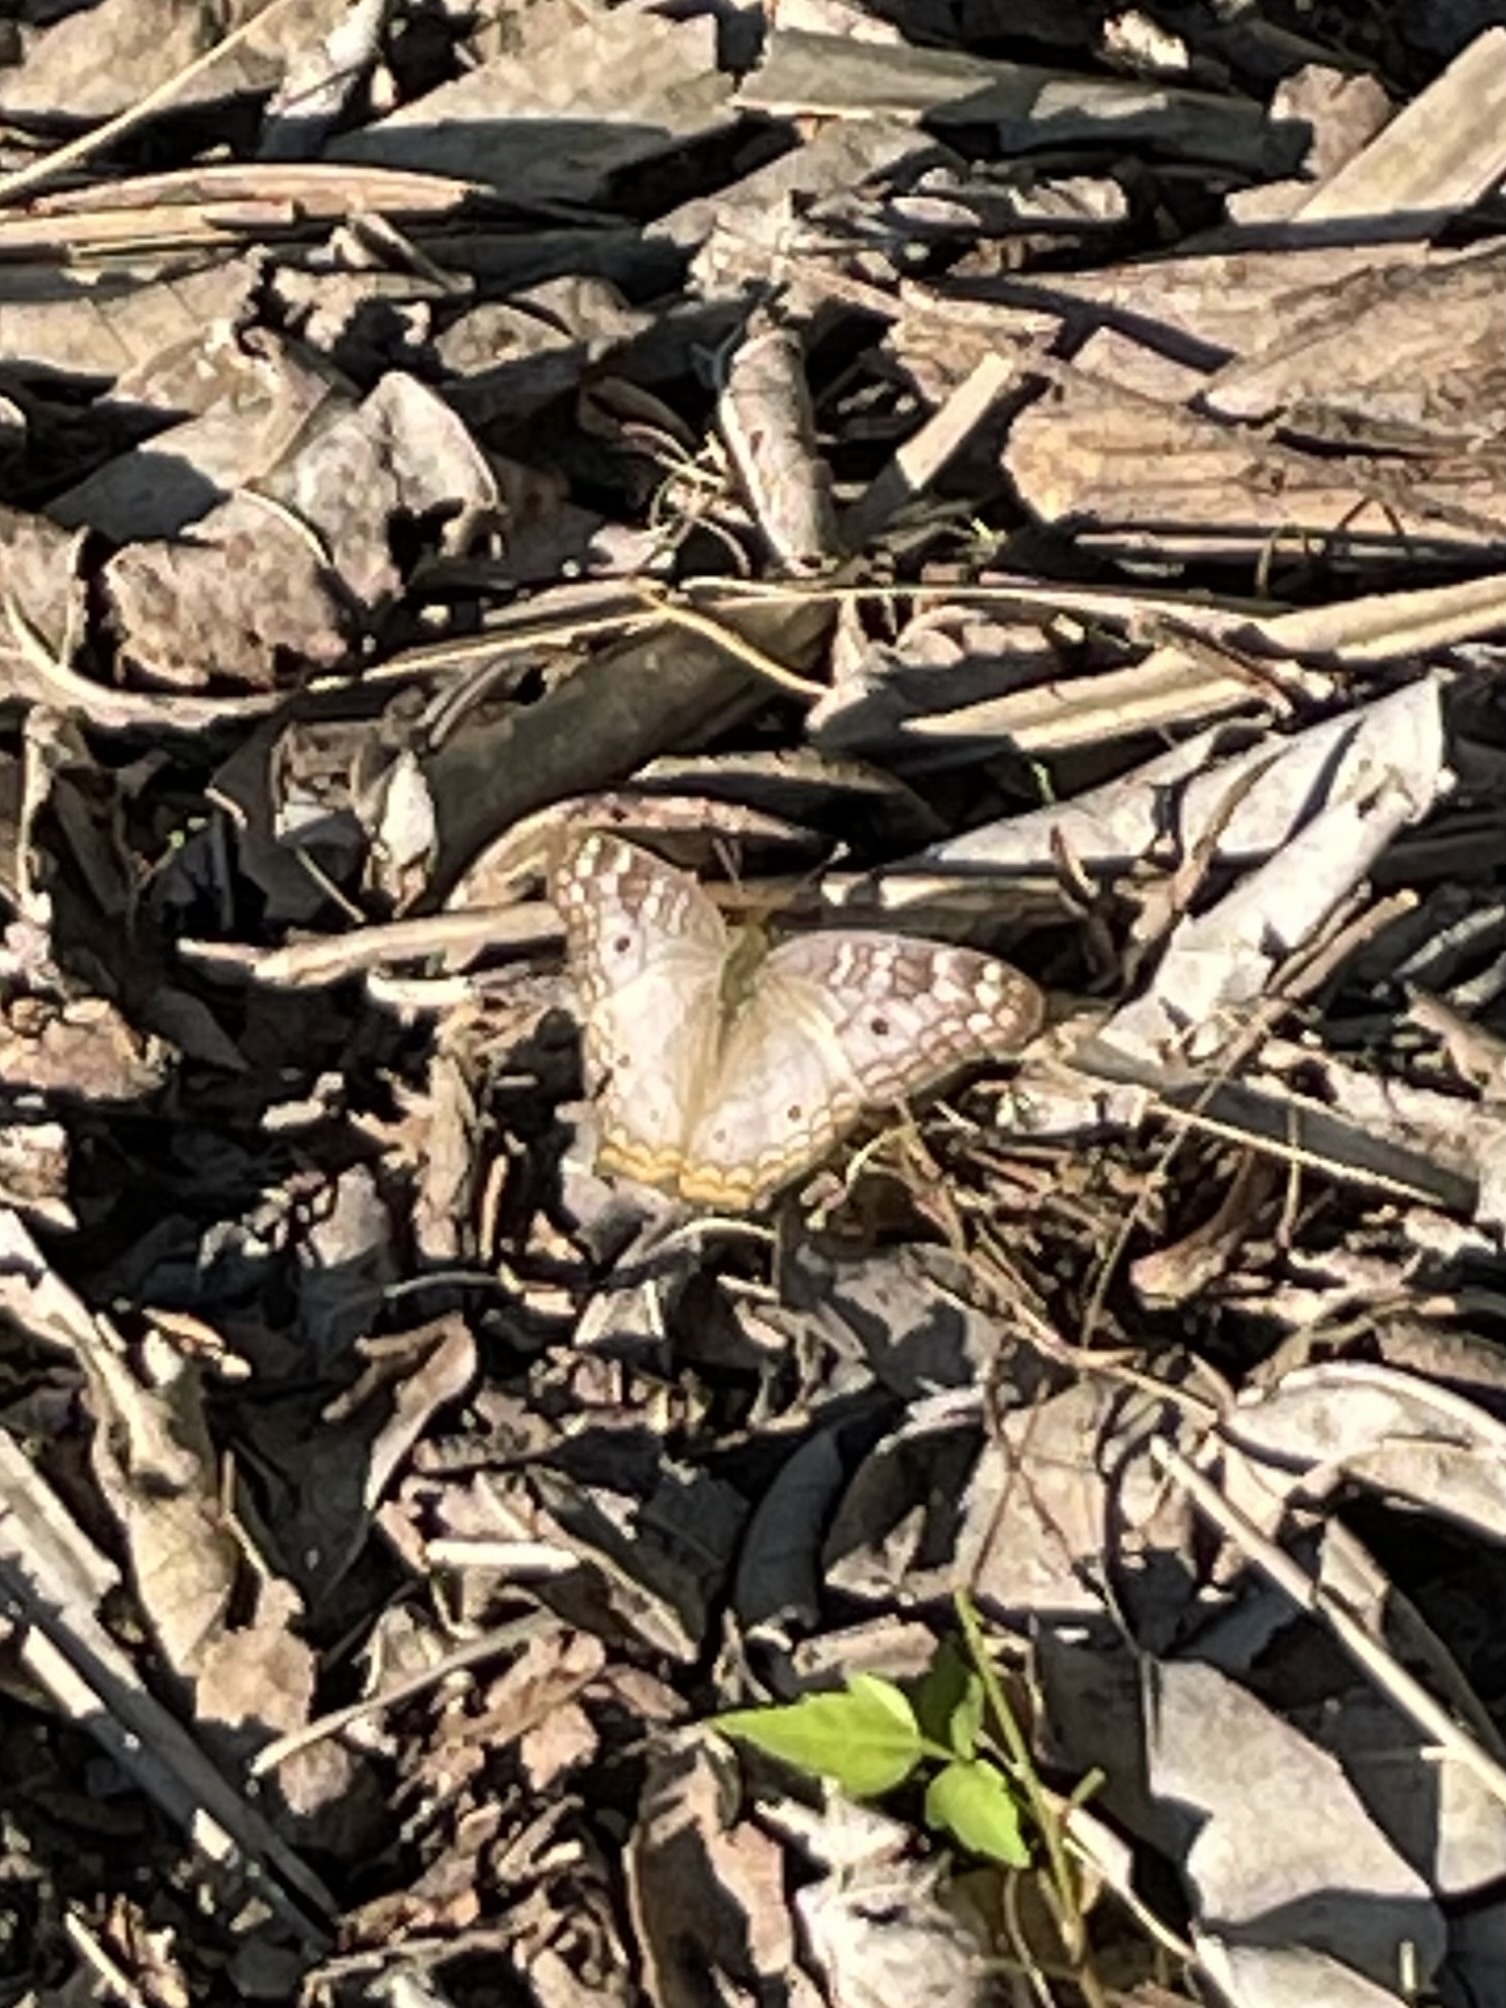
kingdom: Animalia
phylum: Arthropoda
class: Insecta
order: Lepidoptera
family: Nymphalidae
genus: Anartia
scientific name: Anartia jatrophae
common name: White peacock
